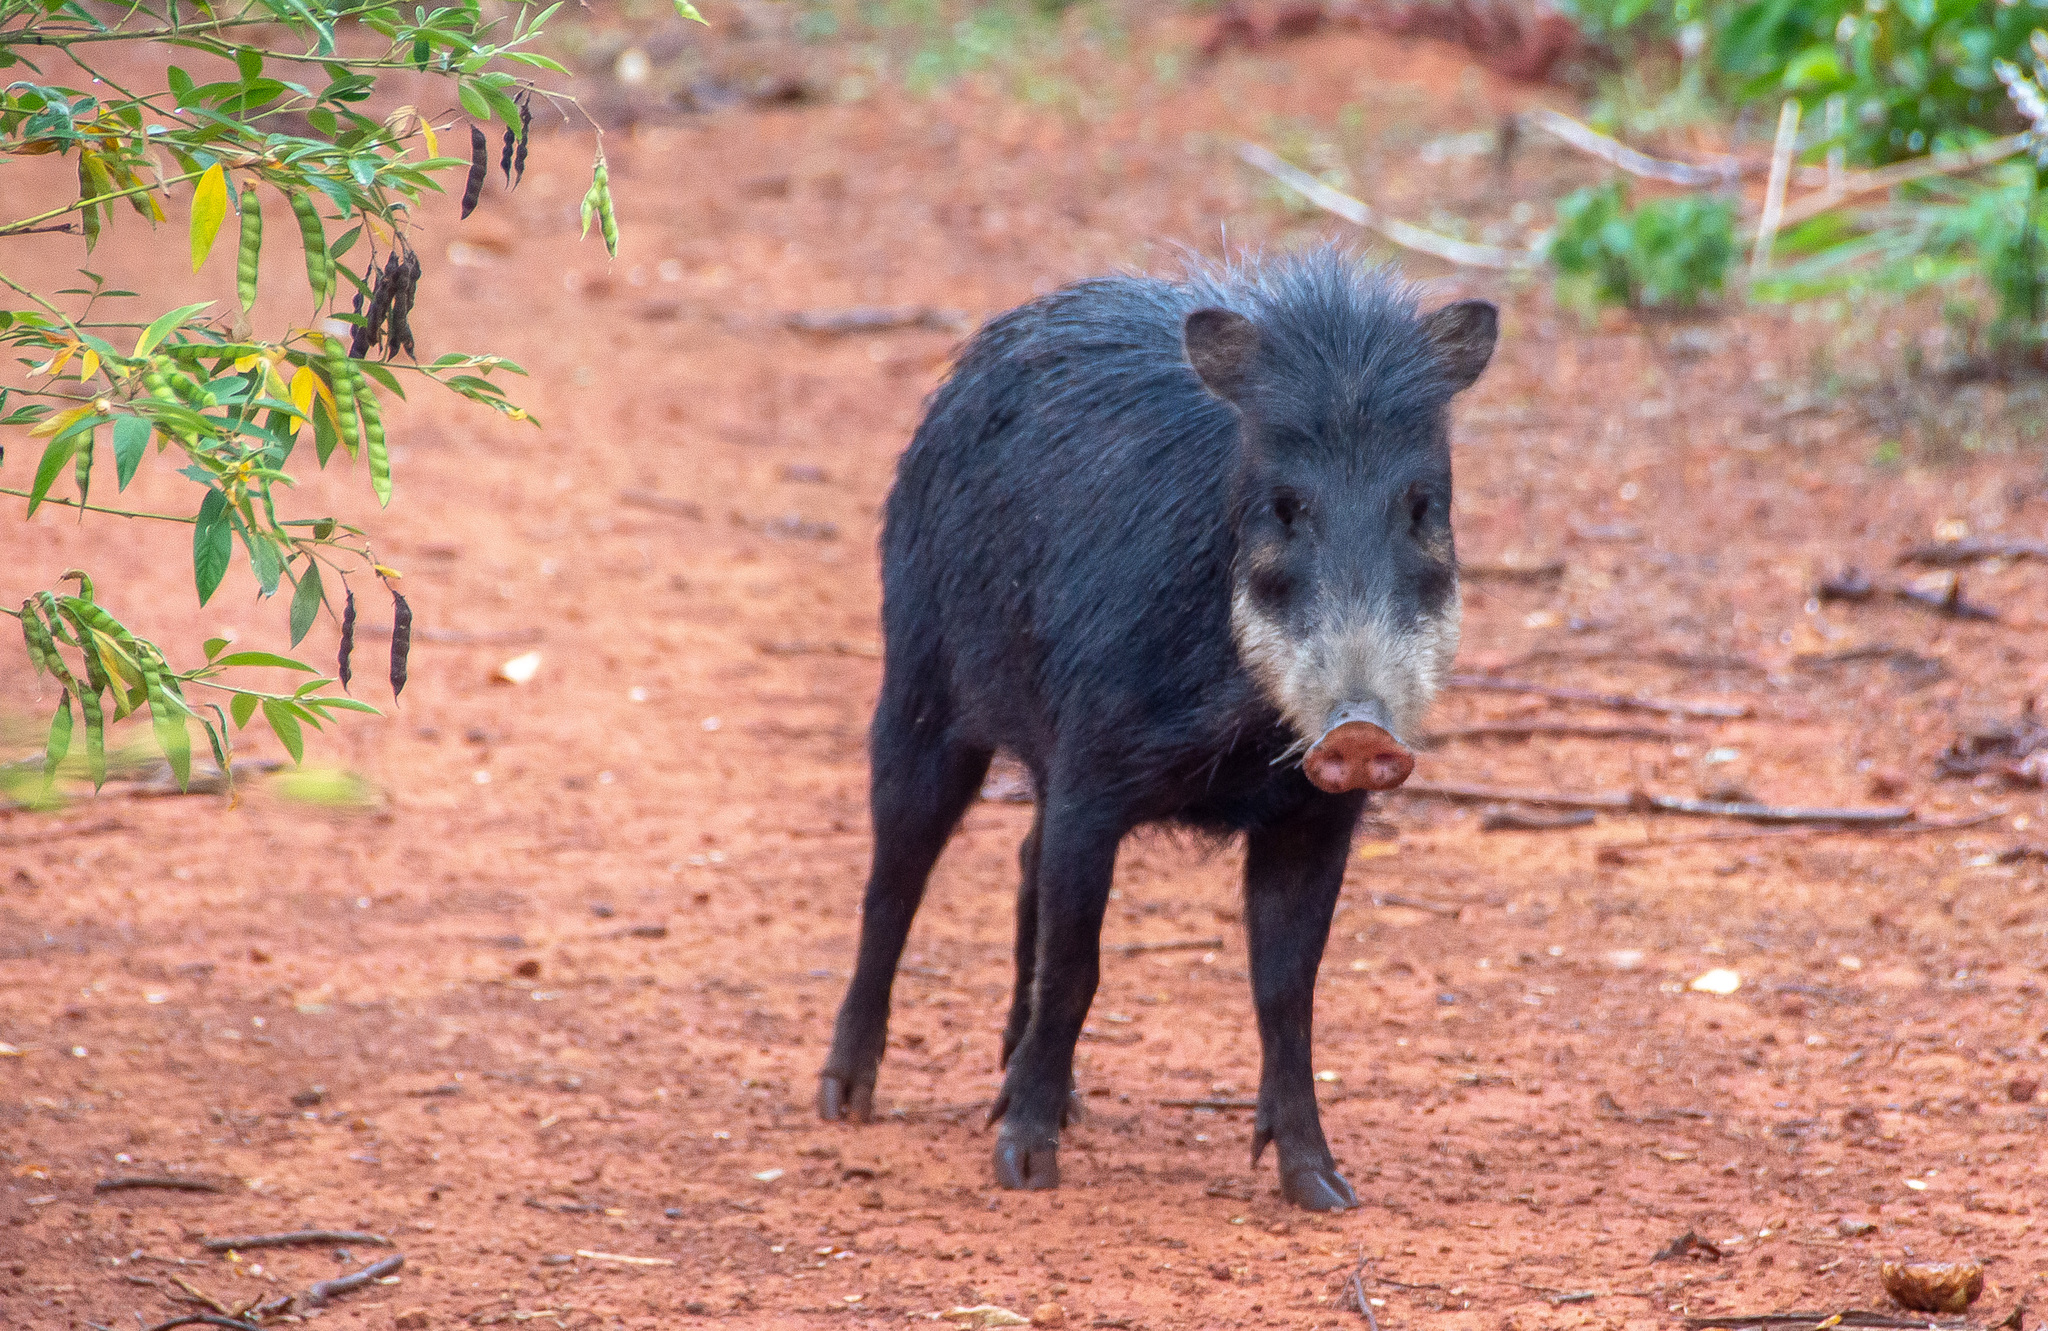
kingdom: Animalia
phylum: Chordata
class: Mammalia
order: Artiodactyla
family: Tayassuidae
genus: Tayassu
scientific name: Tayassu pecari
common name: White-lipped peccary
